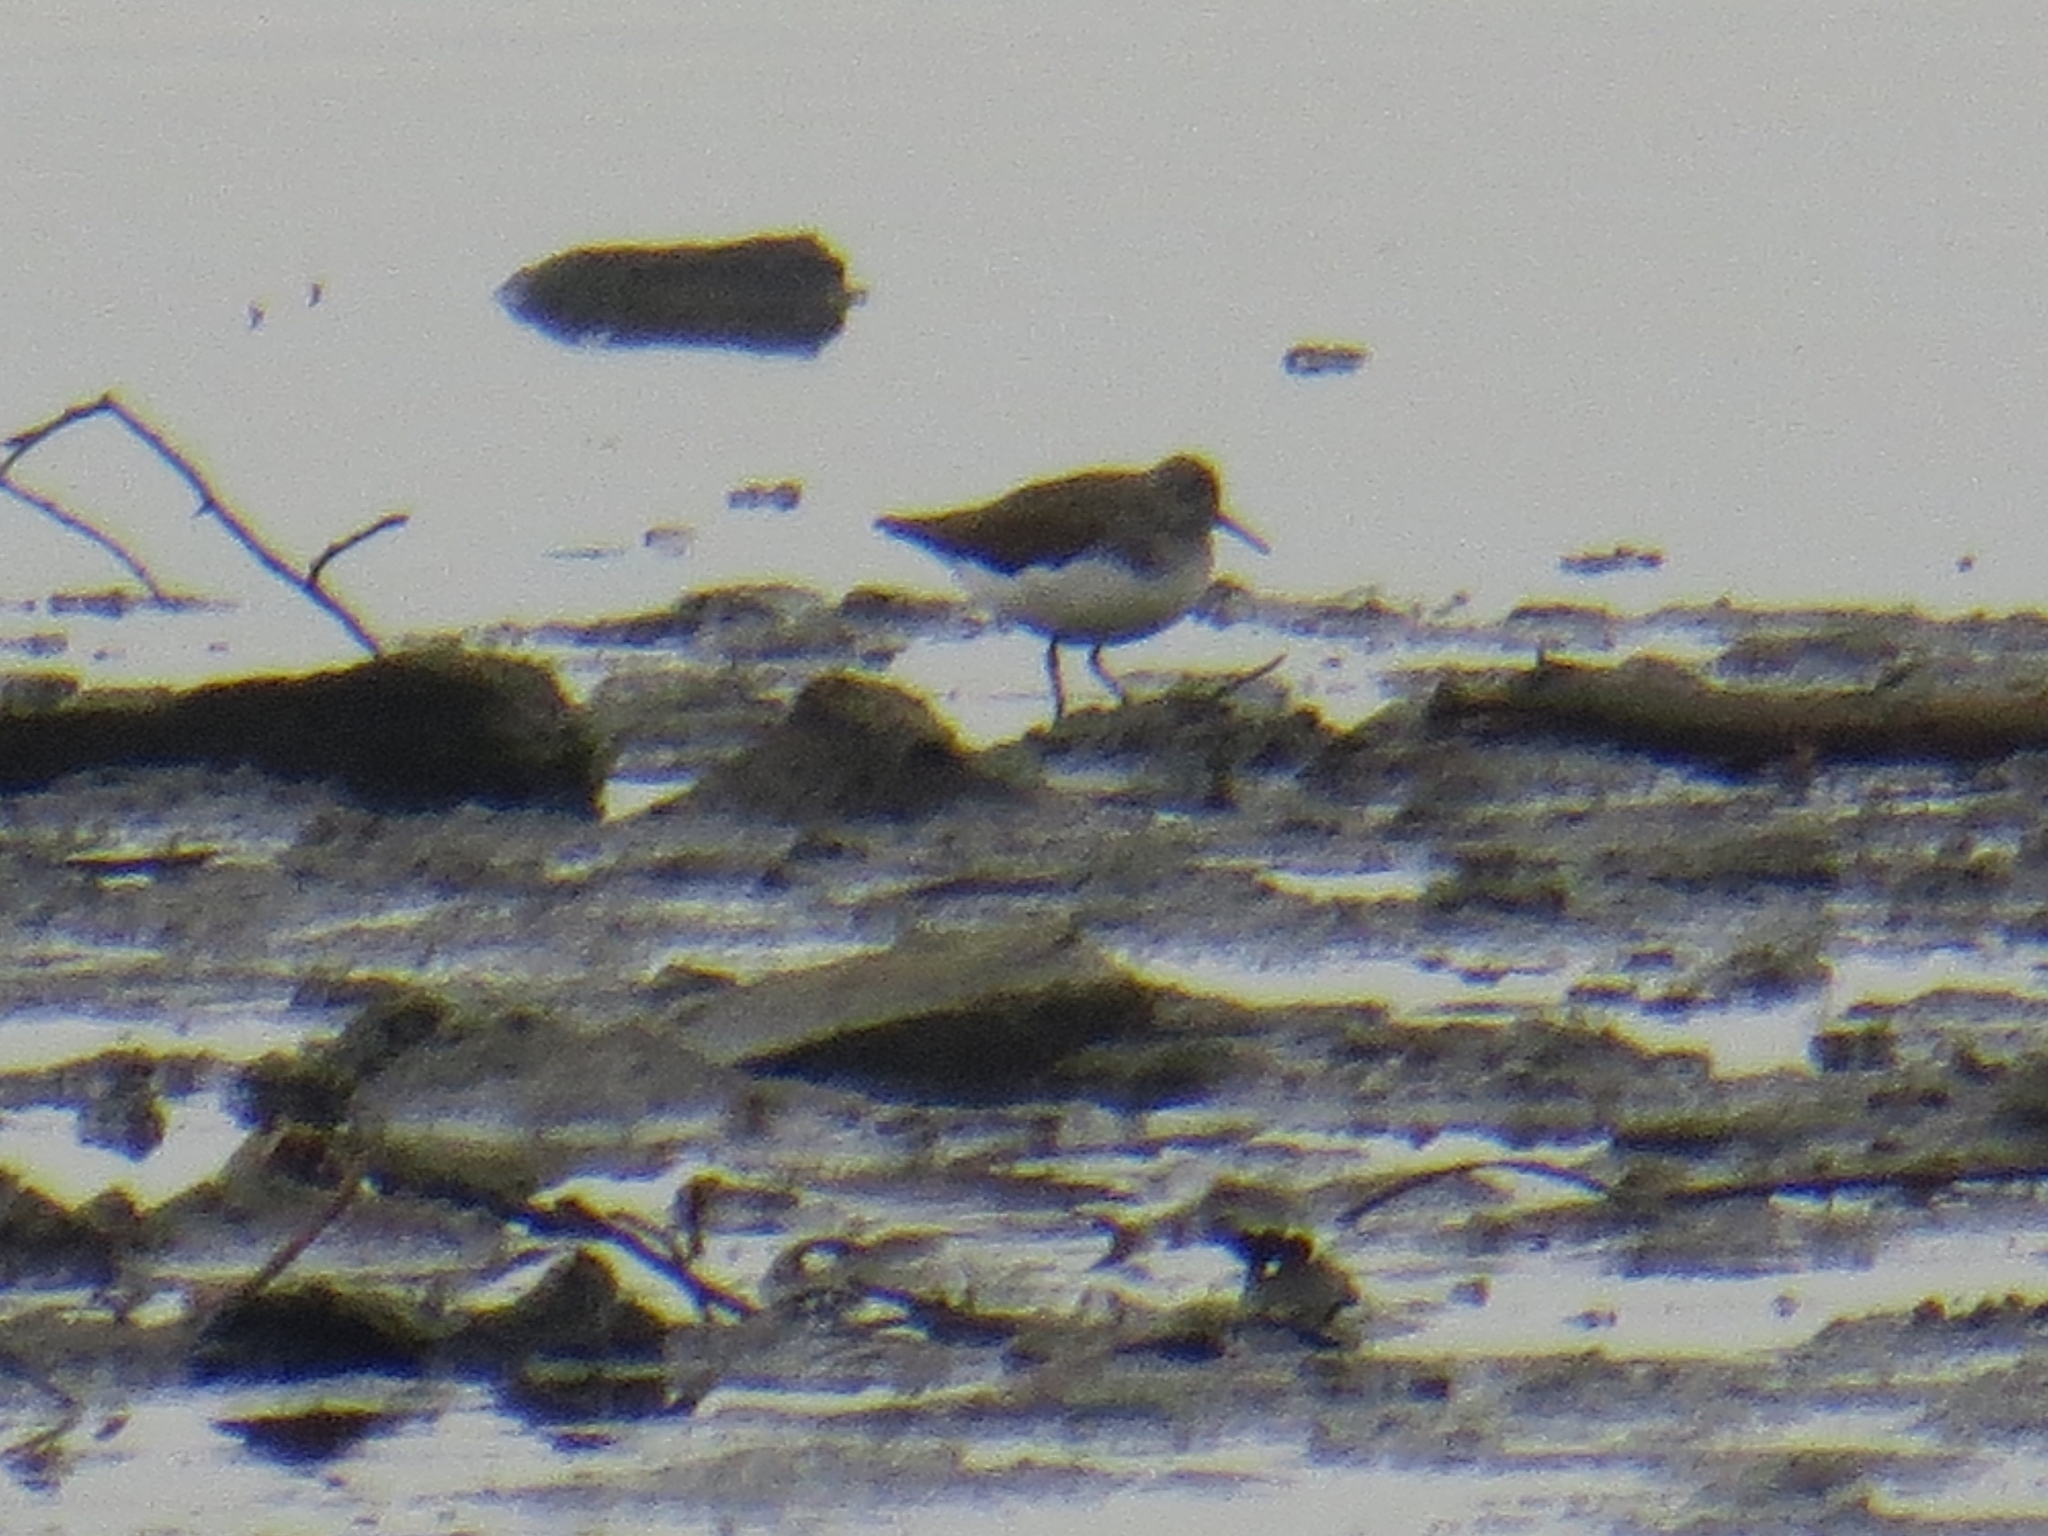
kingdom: Animalia
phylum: Chordata
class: Aves
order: Charadriiformes
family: Scolopacidae
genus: Tringa
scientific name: Tringa ochropus
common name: Green sandpiper
